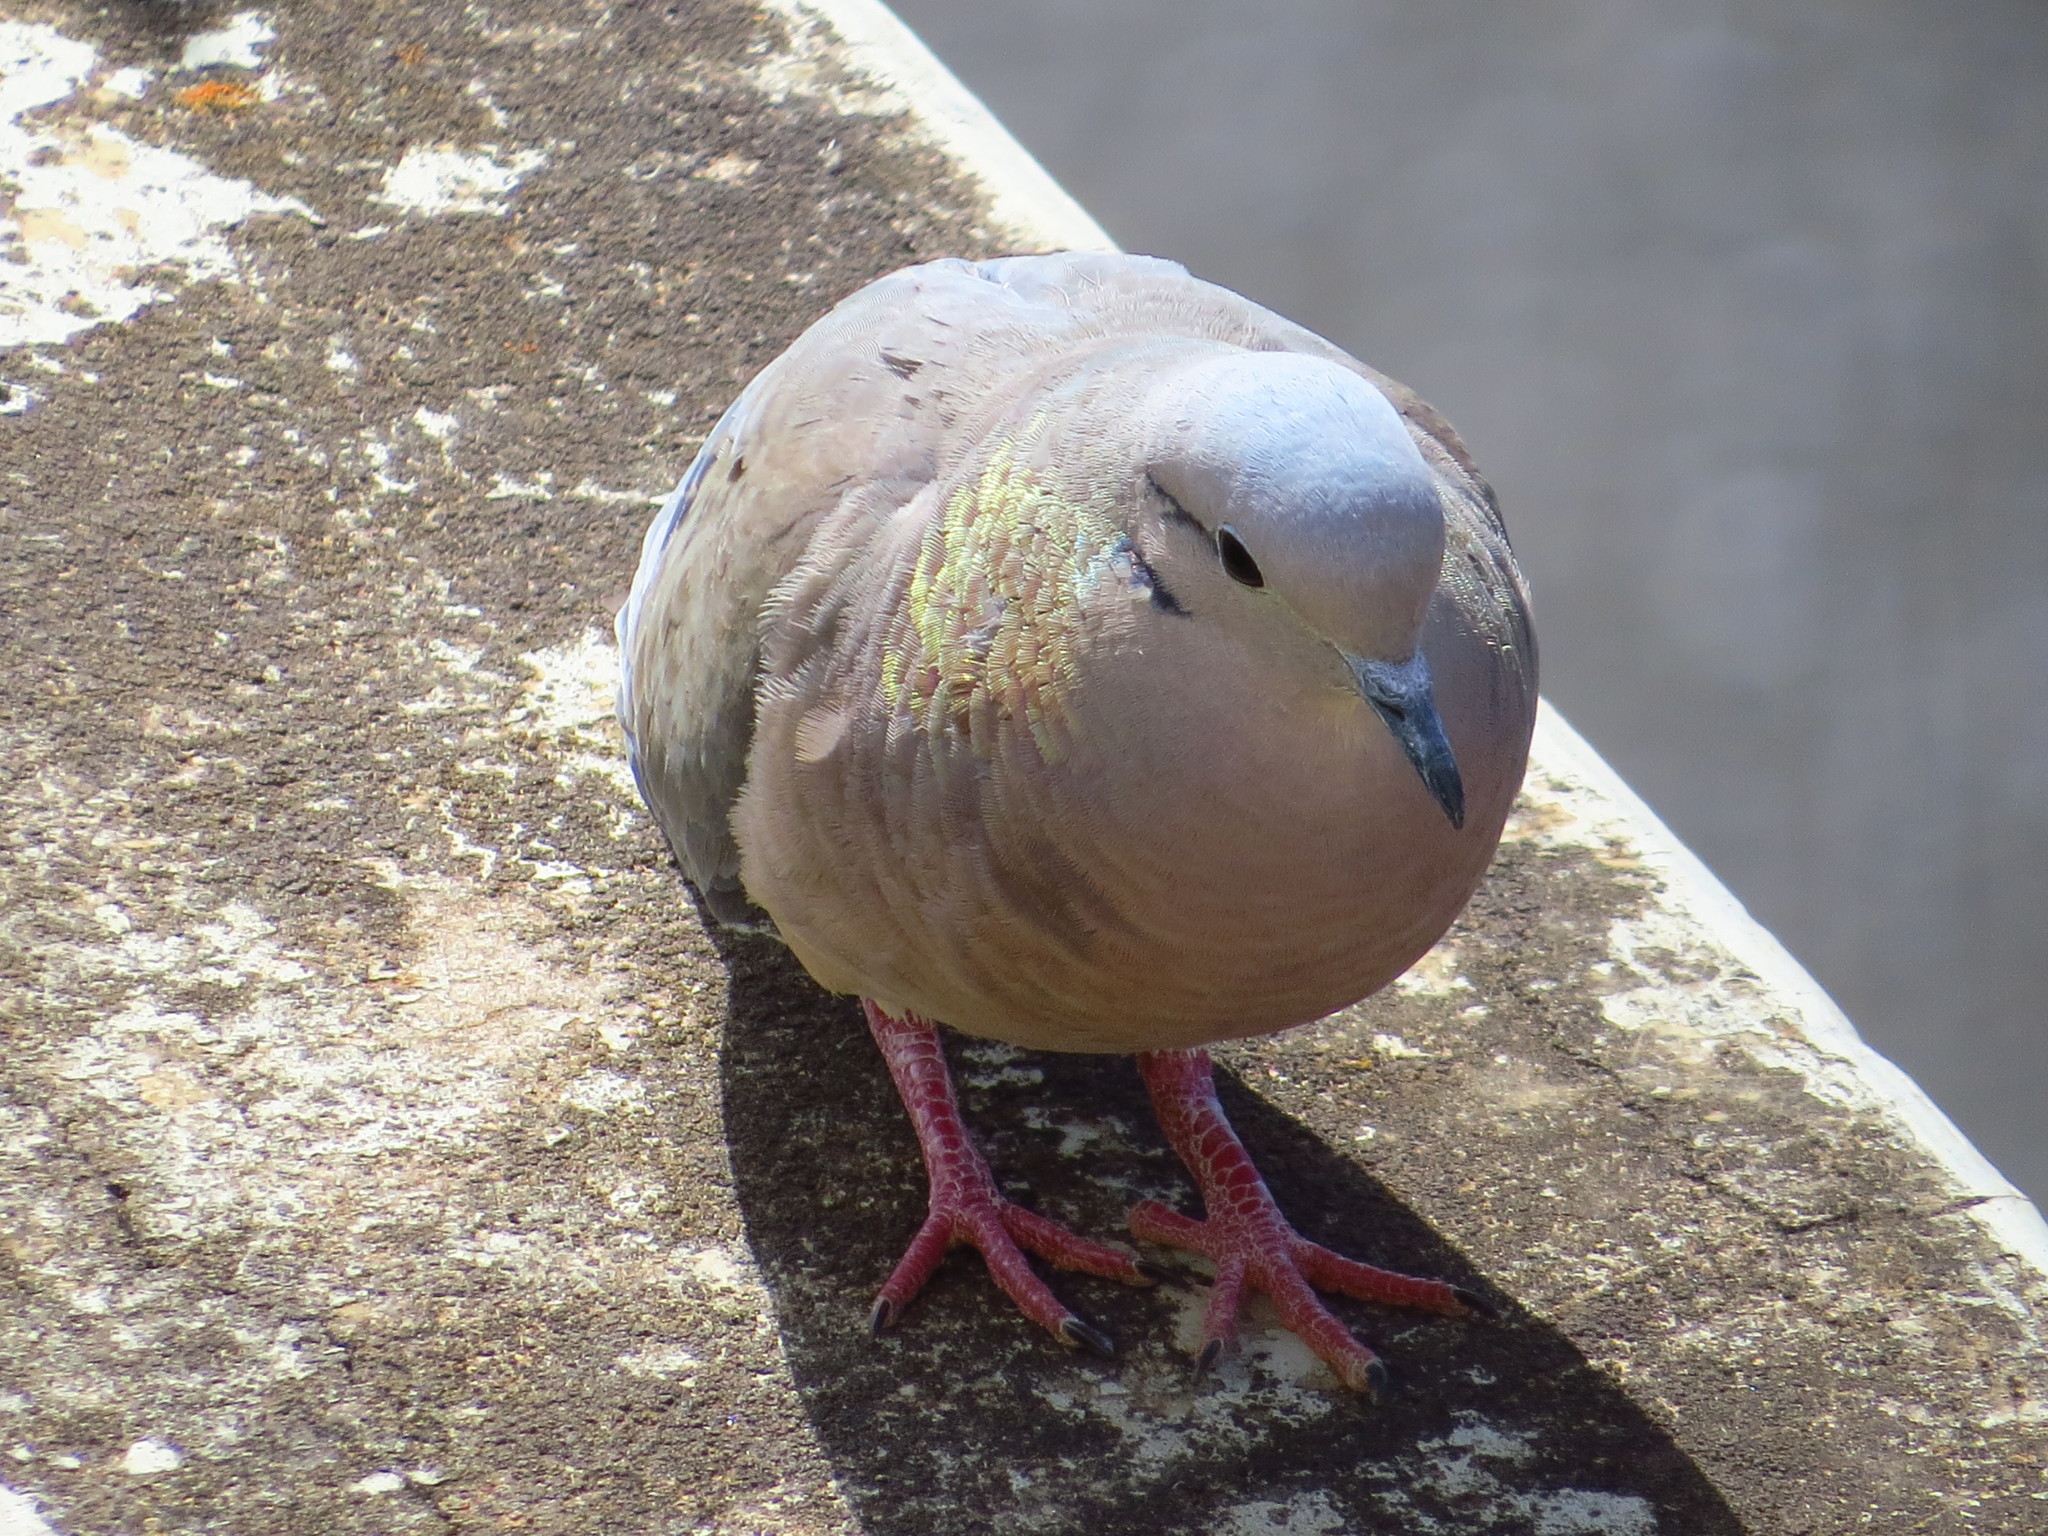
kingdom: Animalia
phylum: Chordata
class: Aves
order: Columbiformes
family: Columbidae
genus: Zenaida
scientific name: Zenaida auriculata
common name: Eared dove
